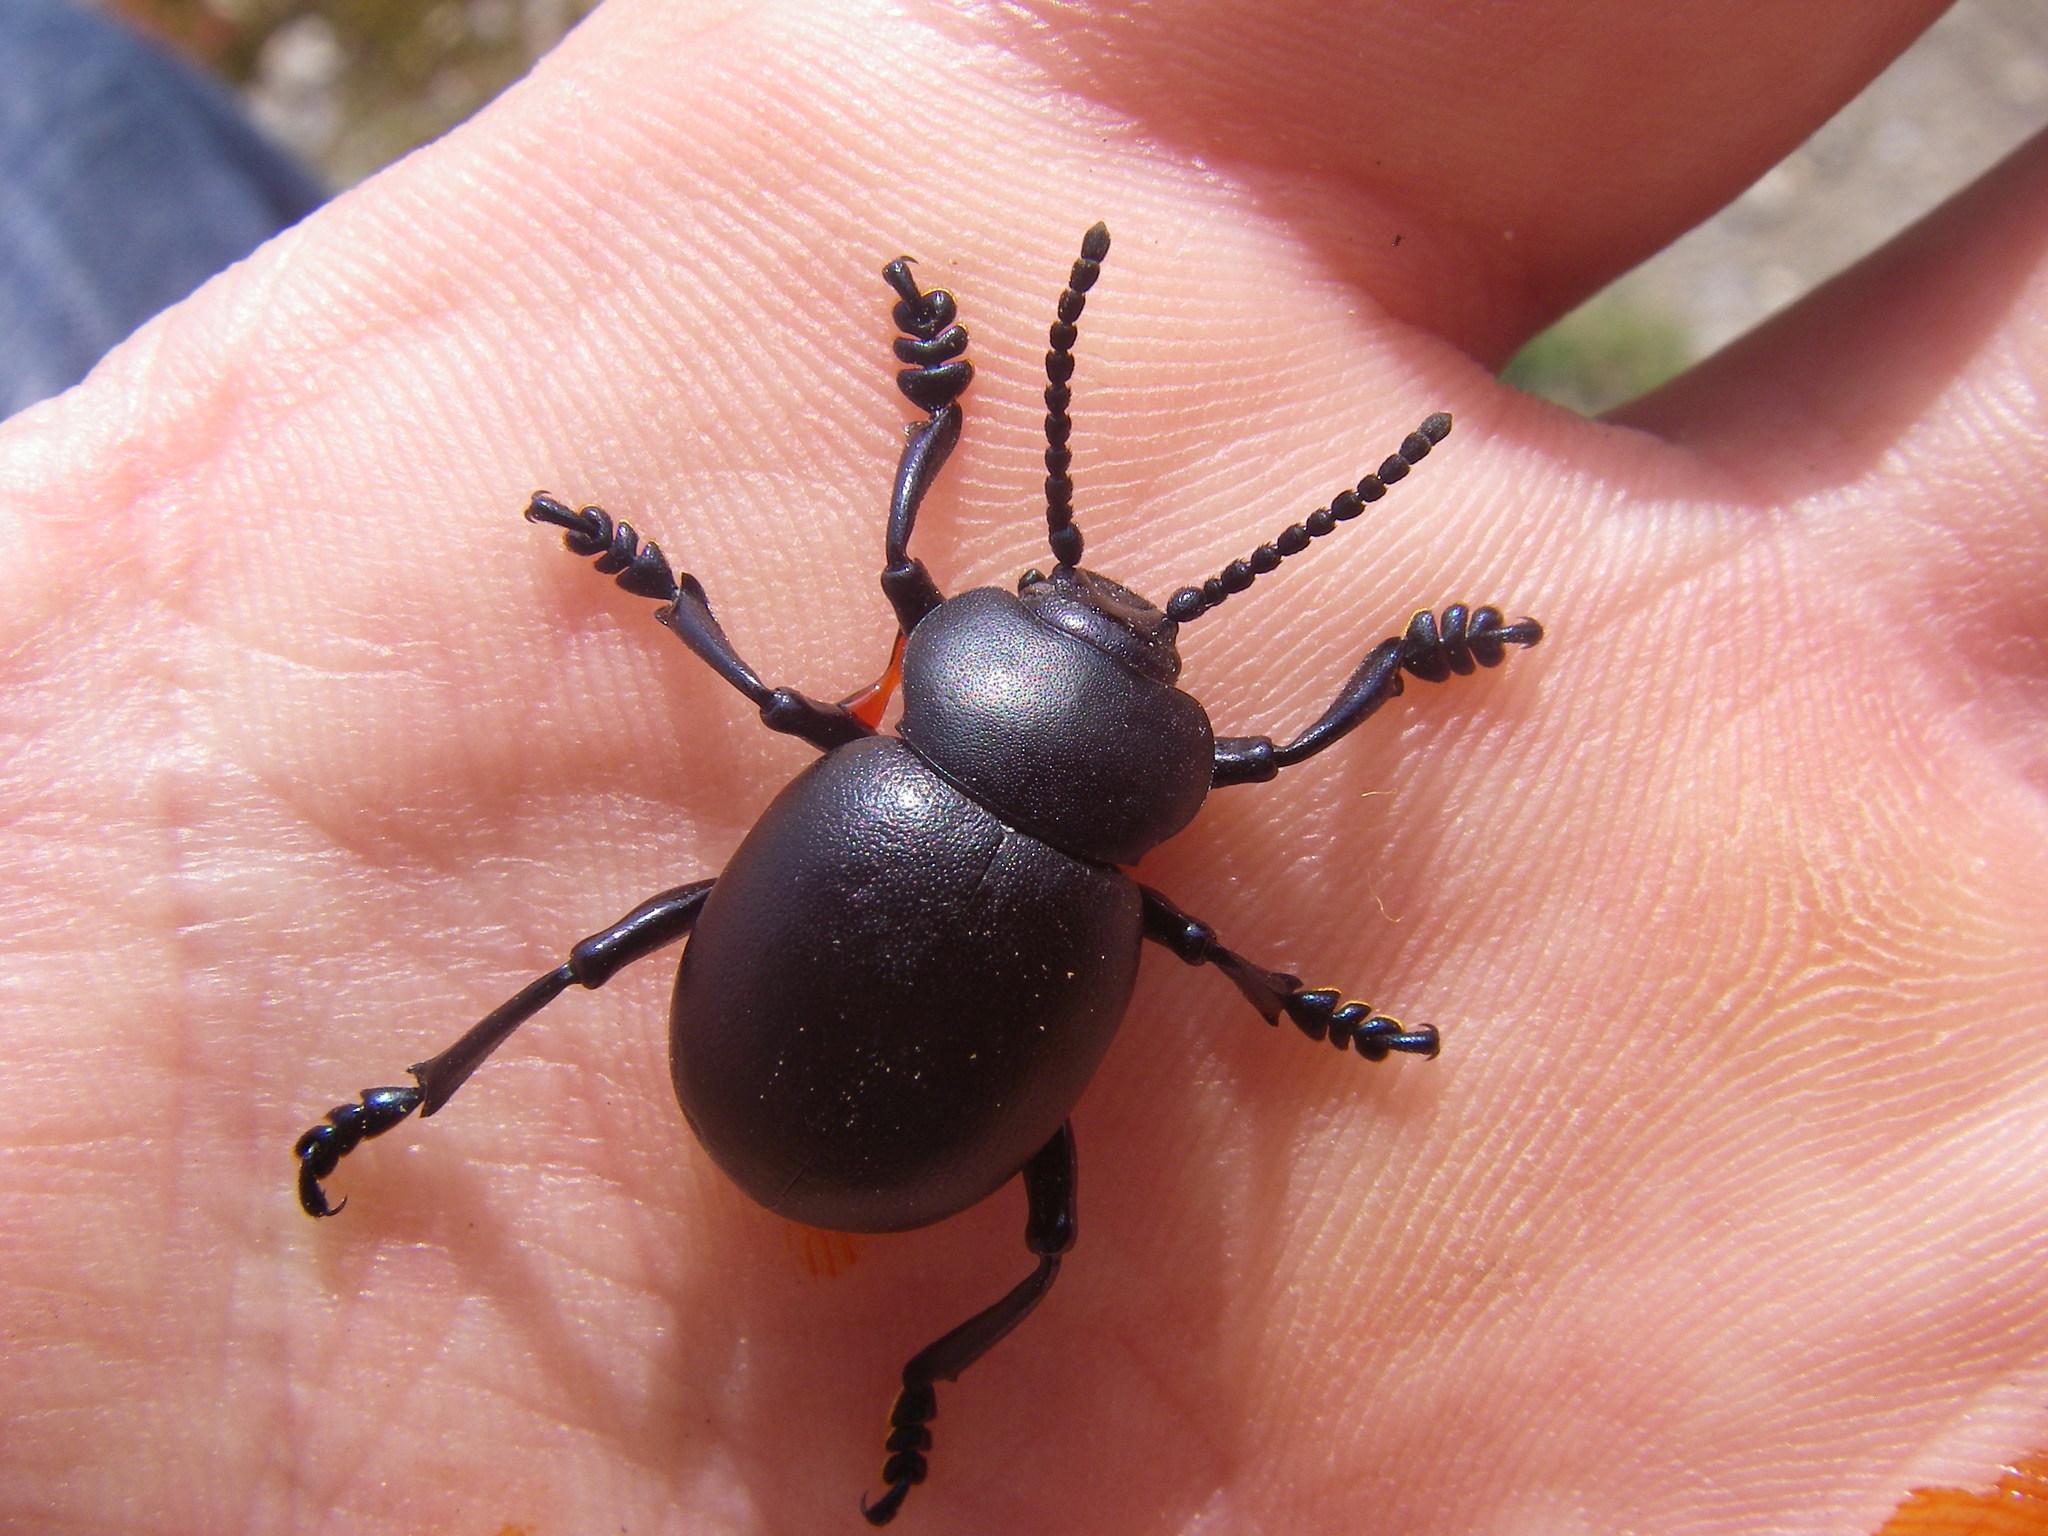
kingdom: Animalia
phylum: Arthropoda
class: Insecta
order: Coleoptera
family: Chrysomelidae
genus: Timarcha
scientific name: Timarcha tenebricosa
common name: Bloody-nosed beetle
